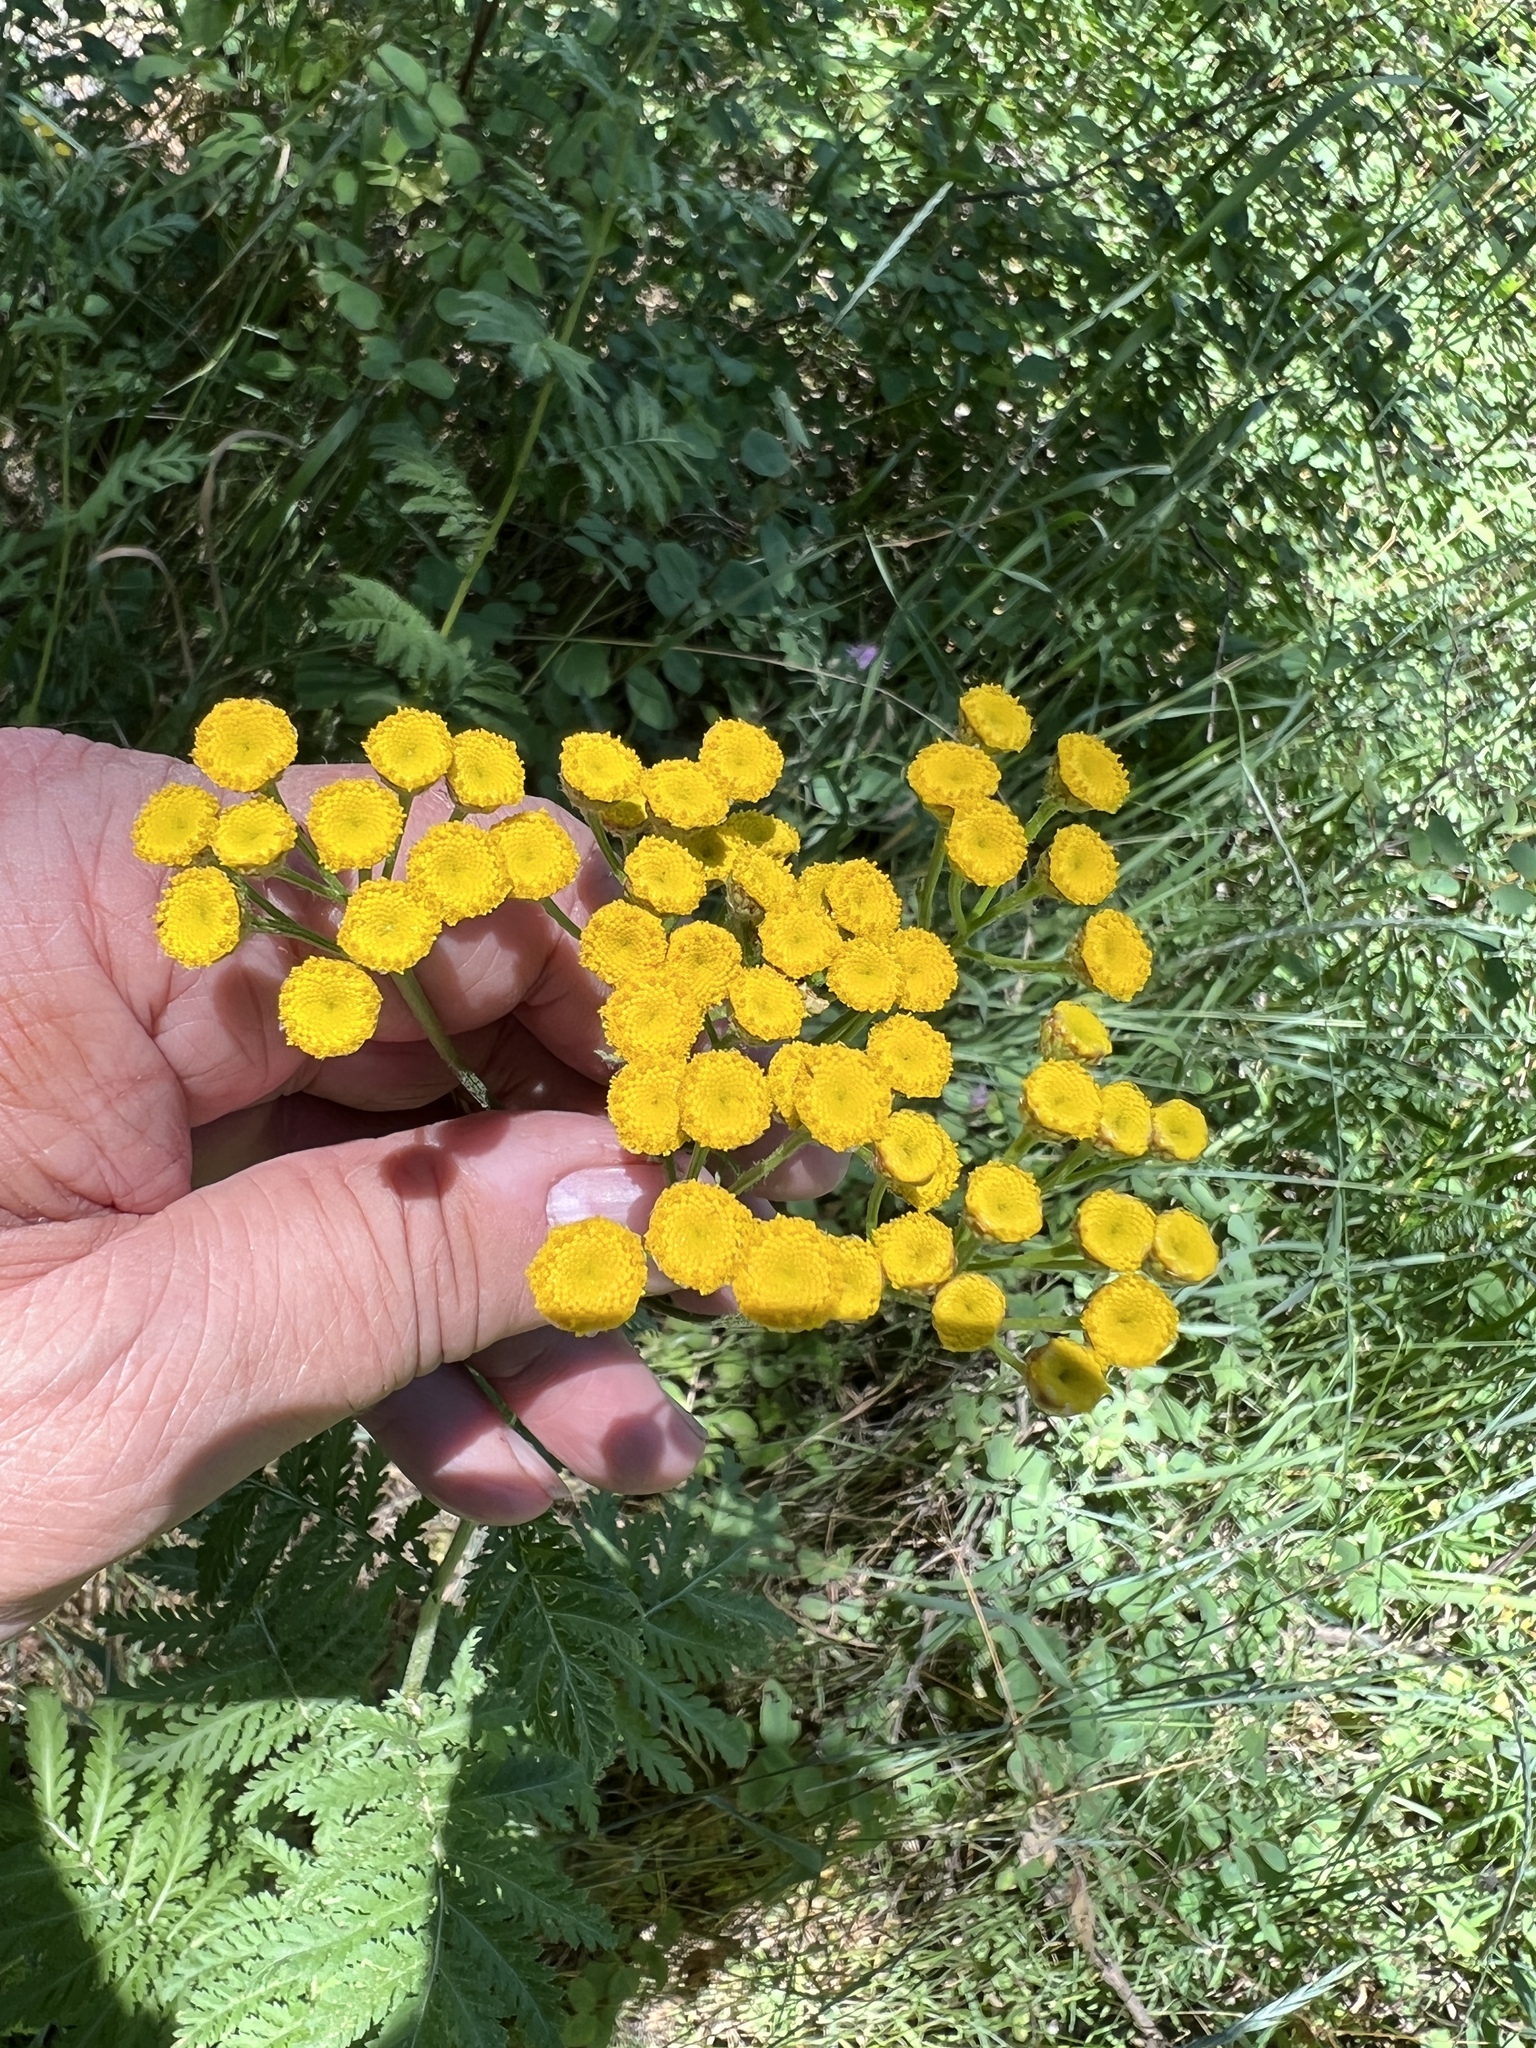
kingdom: Plantae
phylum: Tracheophyta
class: Magnoliopsida
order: Asterales
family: Asteraceae
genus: Tanacetum
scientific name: Tanacetum vulgare
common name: Common tansy
